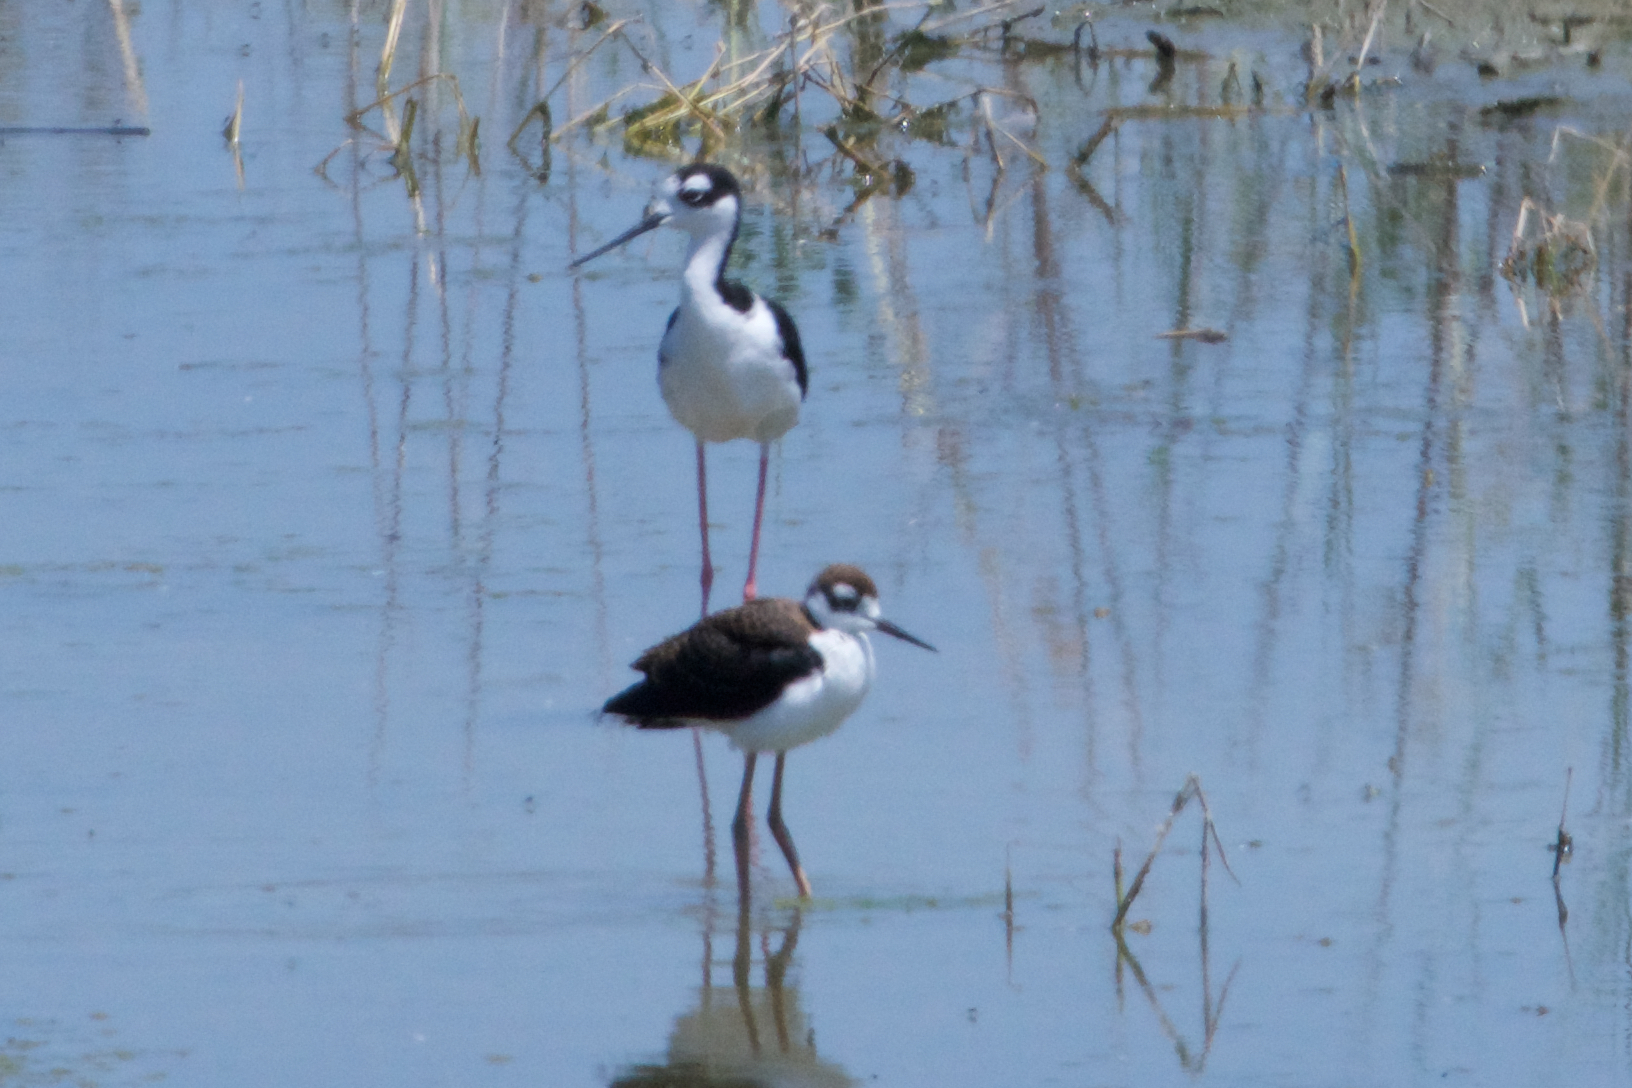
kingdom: Animalia
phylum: Chordata
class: Aves
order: Charadriiformes
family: Recurvirostridae
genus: Himantopus
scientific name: Himantopus mexicanus
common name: Black-necked stilt
